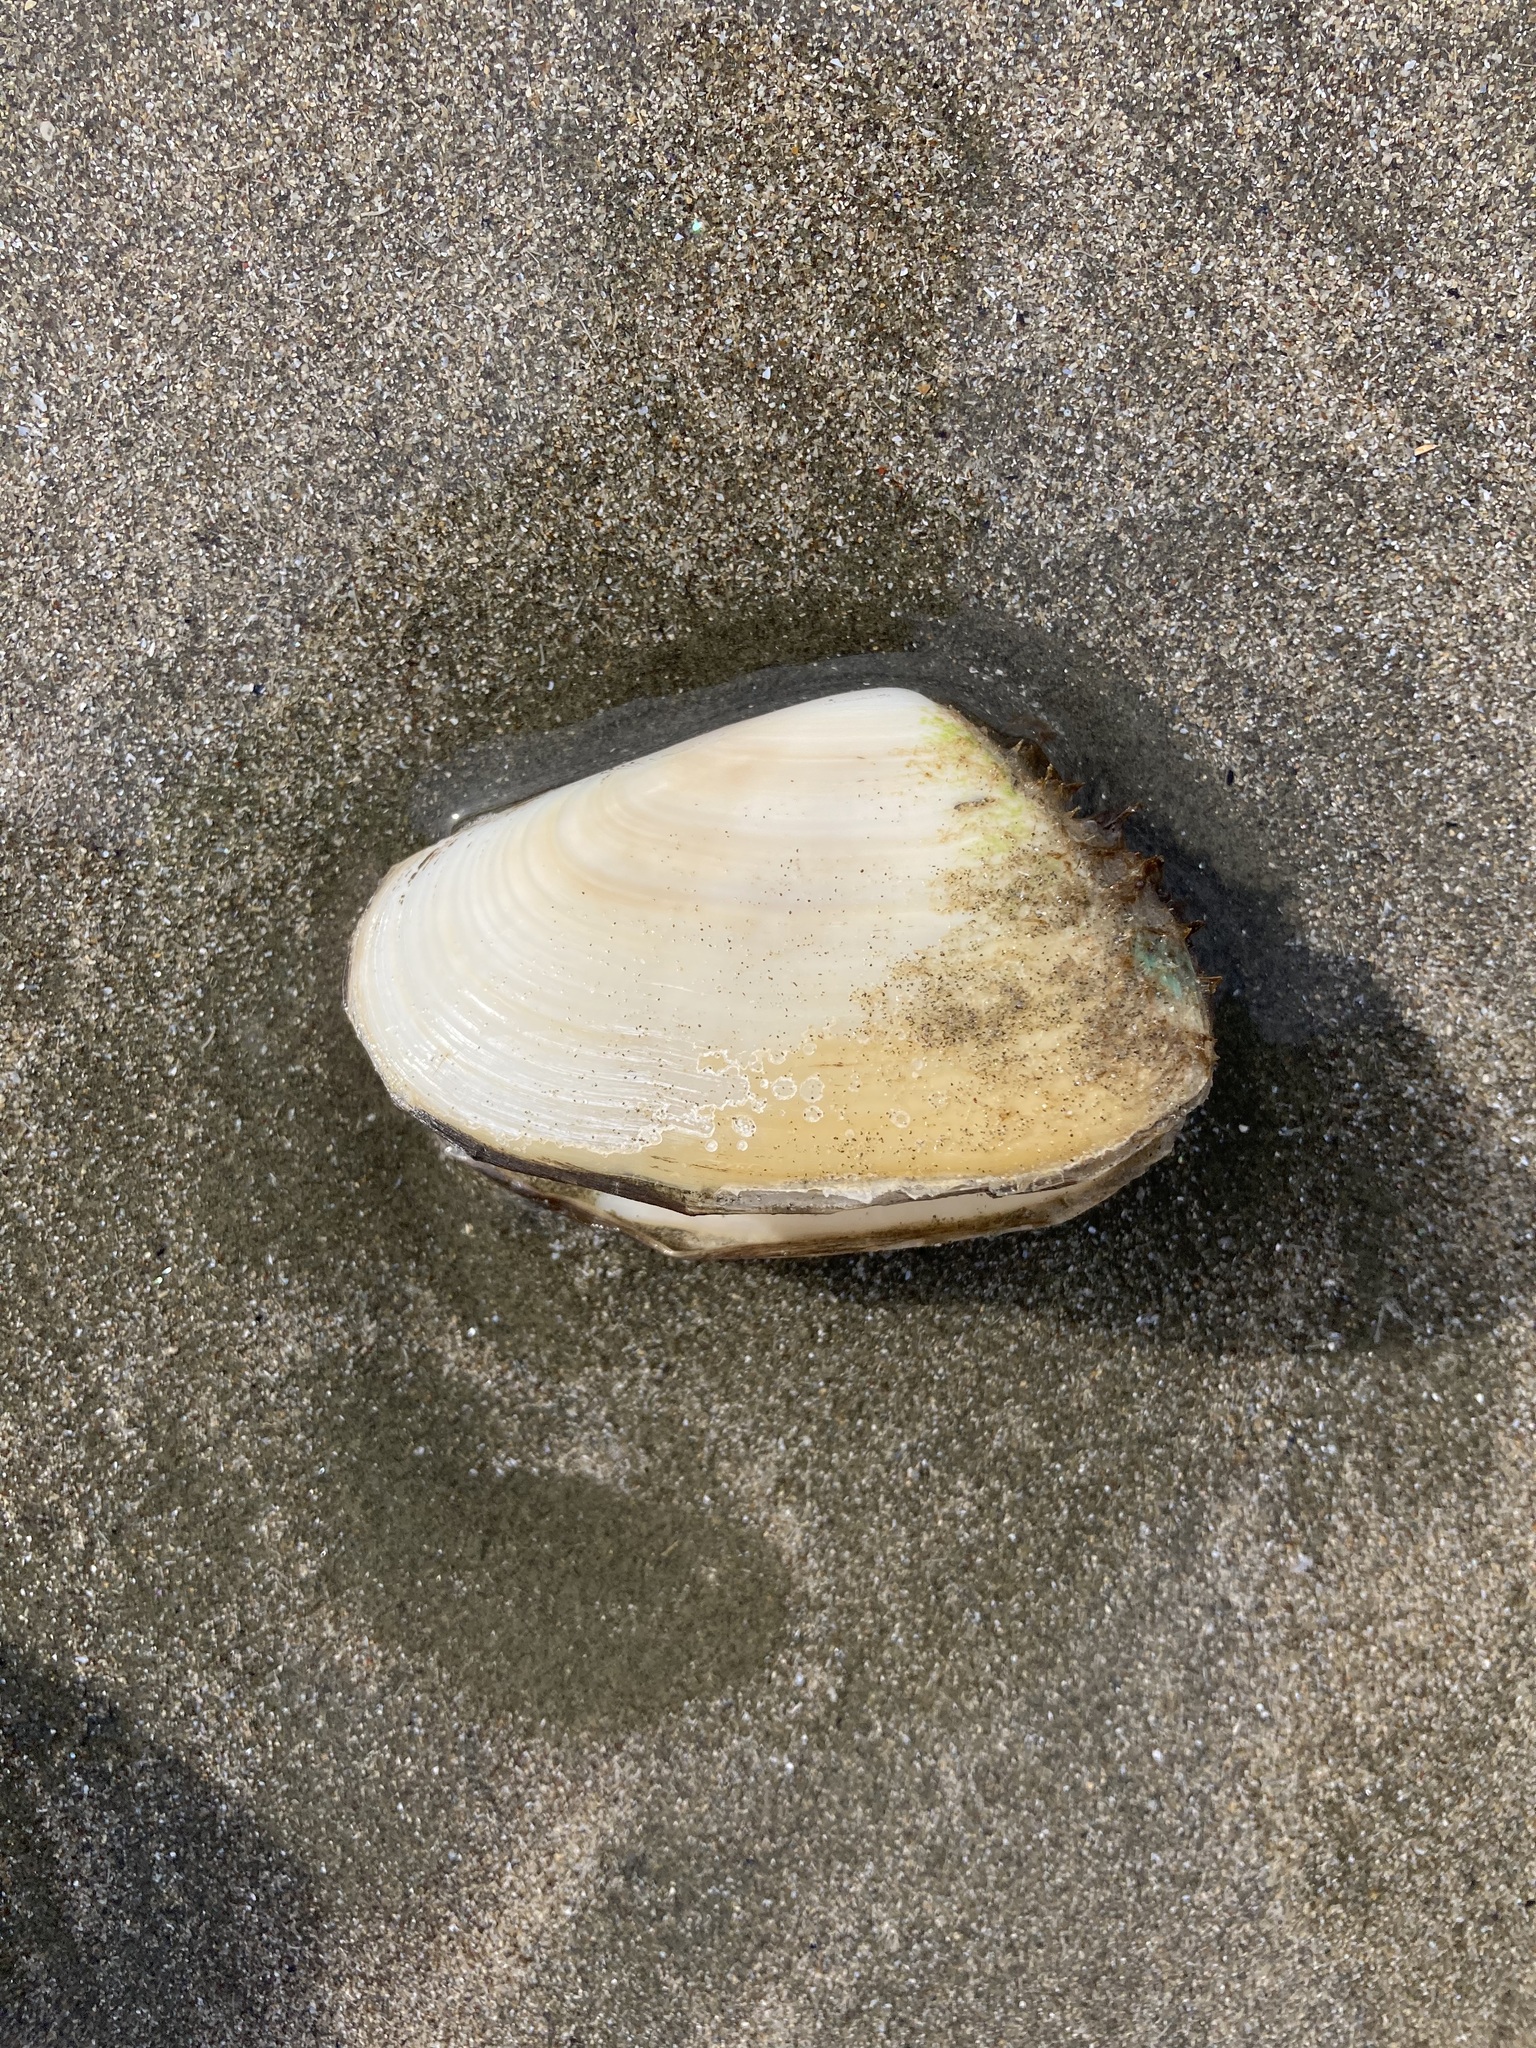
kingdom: Animalia
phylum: Mollusca
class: Bivalvia
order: Venerida
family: Mesodesmatidae
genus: Paphies
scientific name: Paphies donacina
